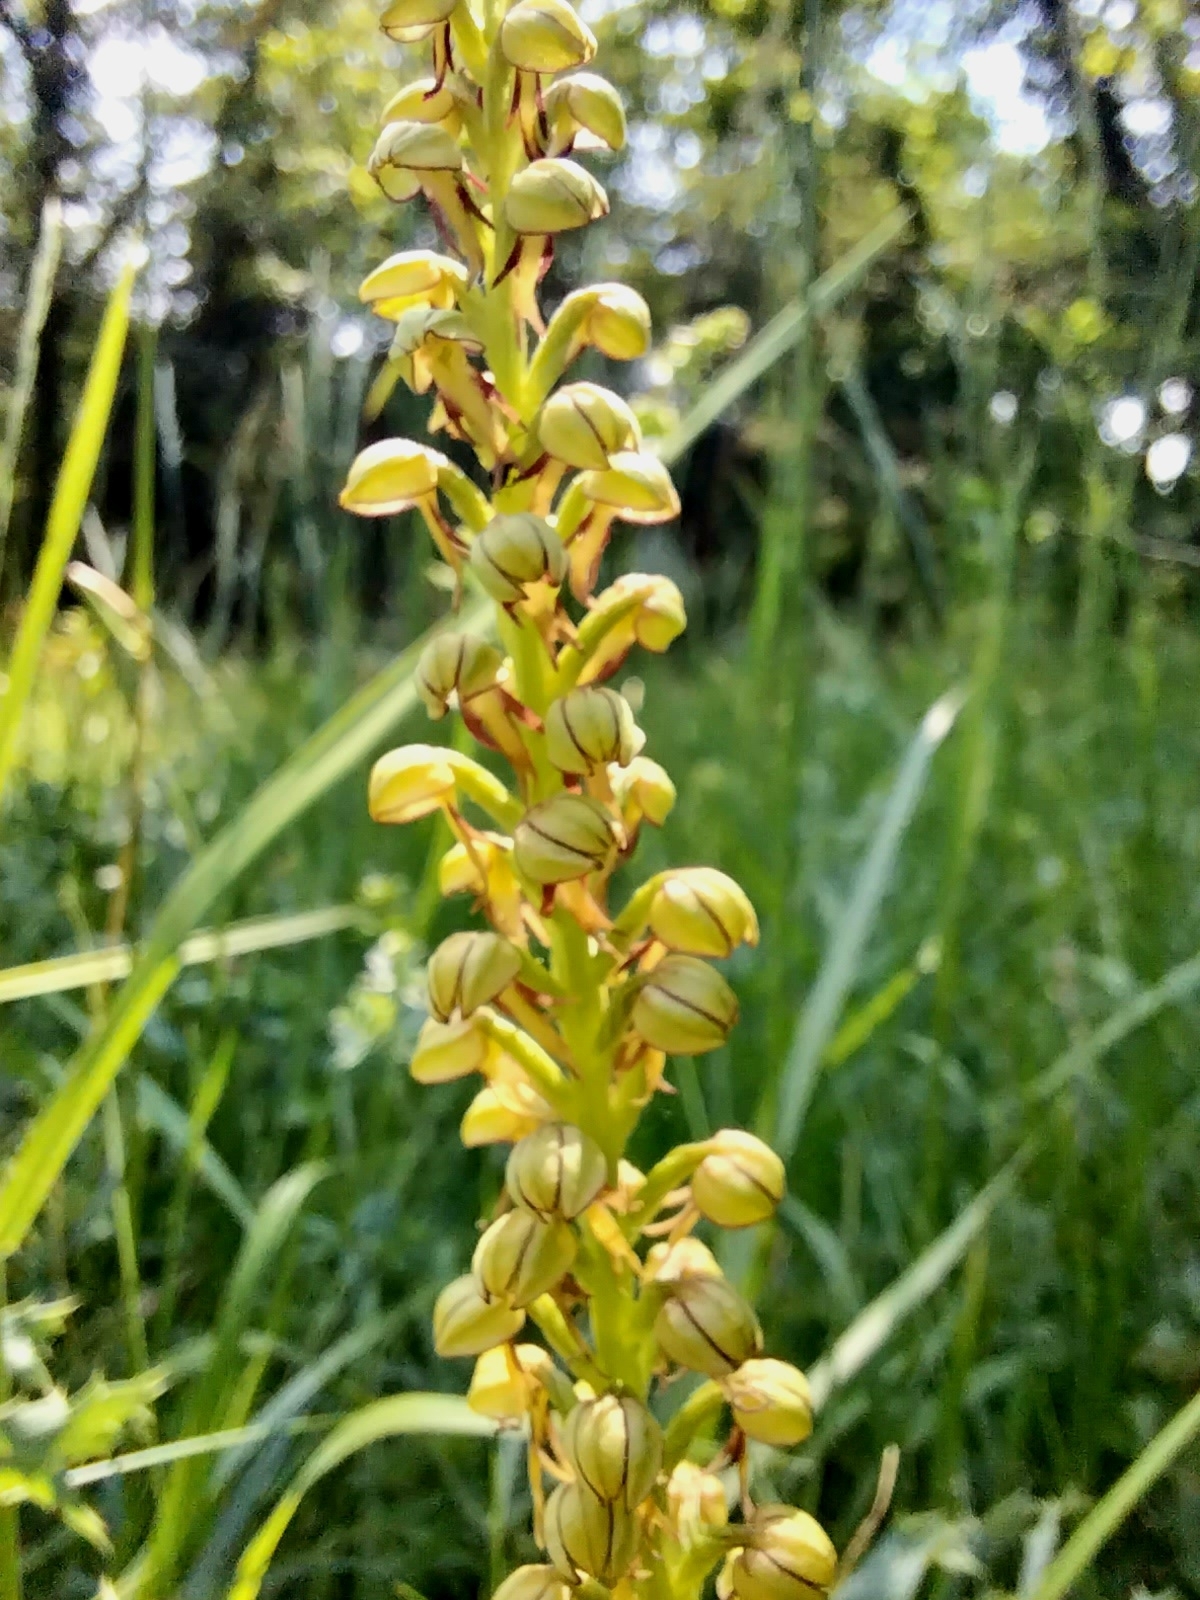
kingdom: Plantae
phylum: Tracheophyta
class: Liliopsida
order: Asparagales
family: Orchidaceae
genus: Orchis
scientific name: Orchis anthropophora
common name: Man orchid
